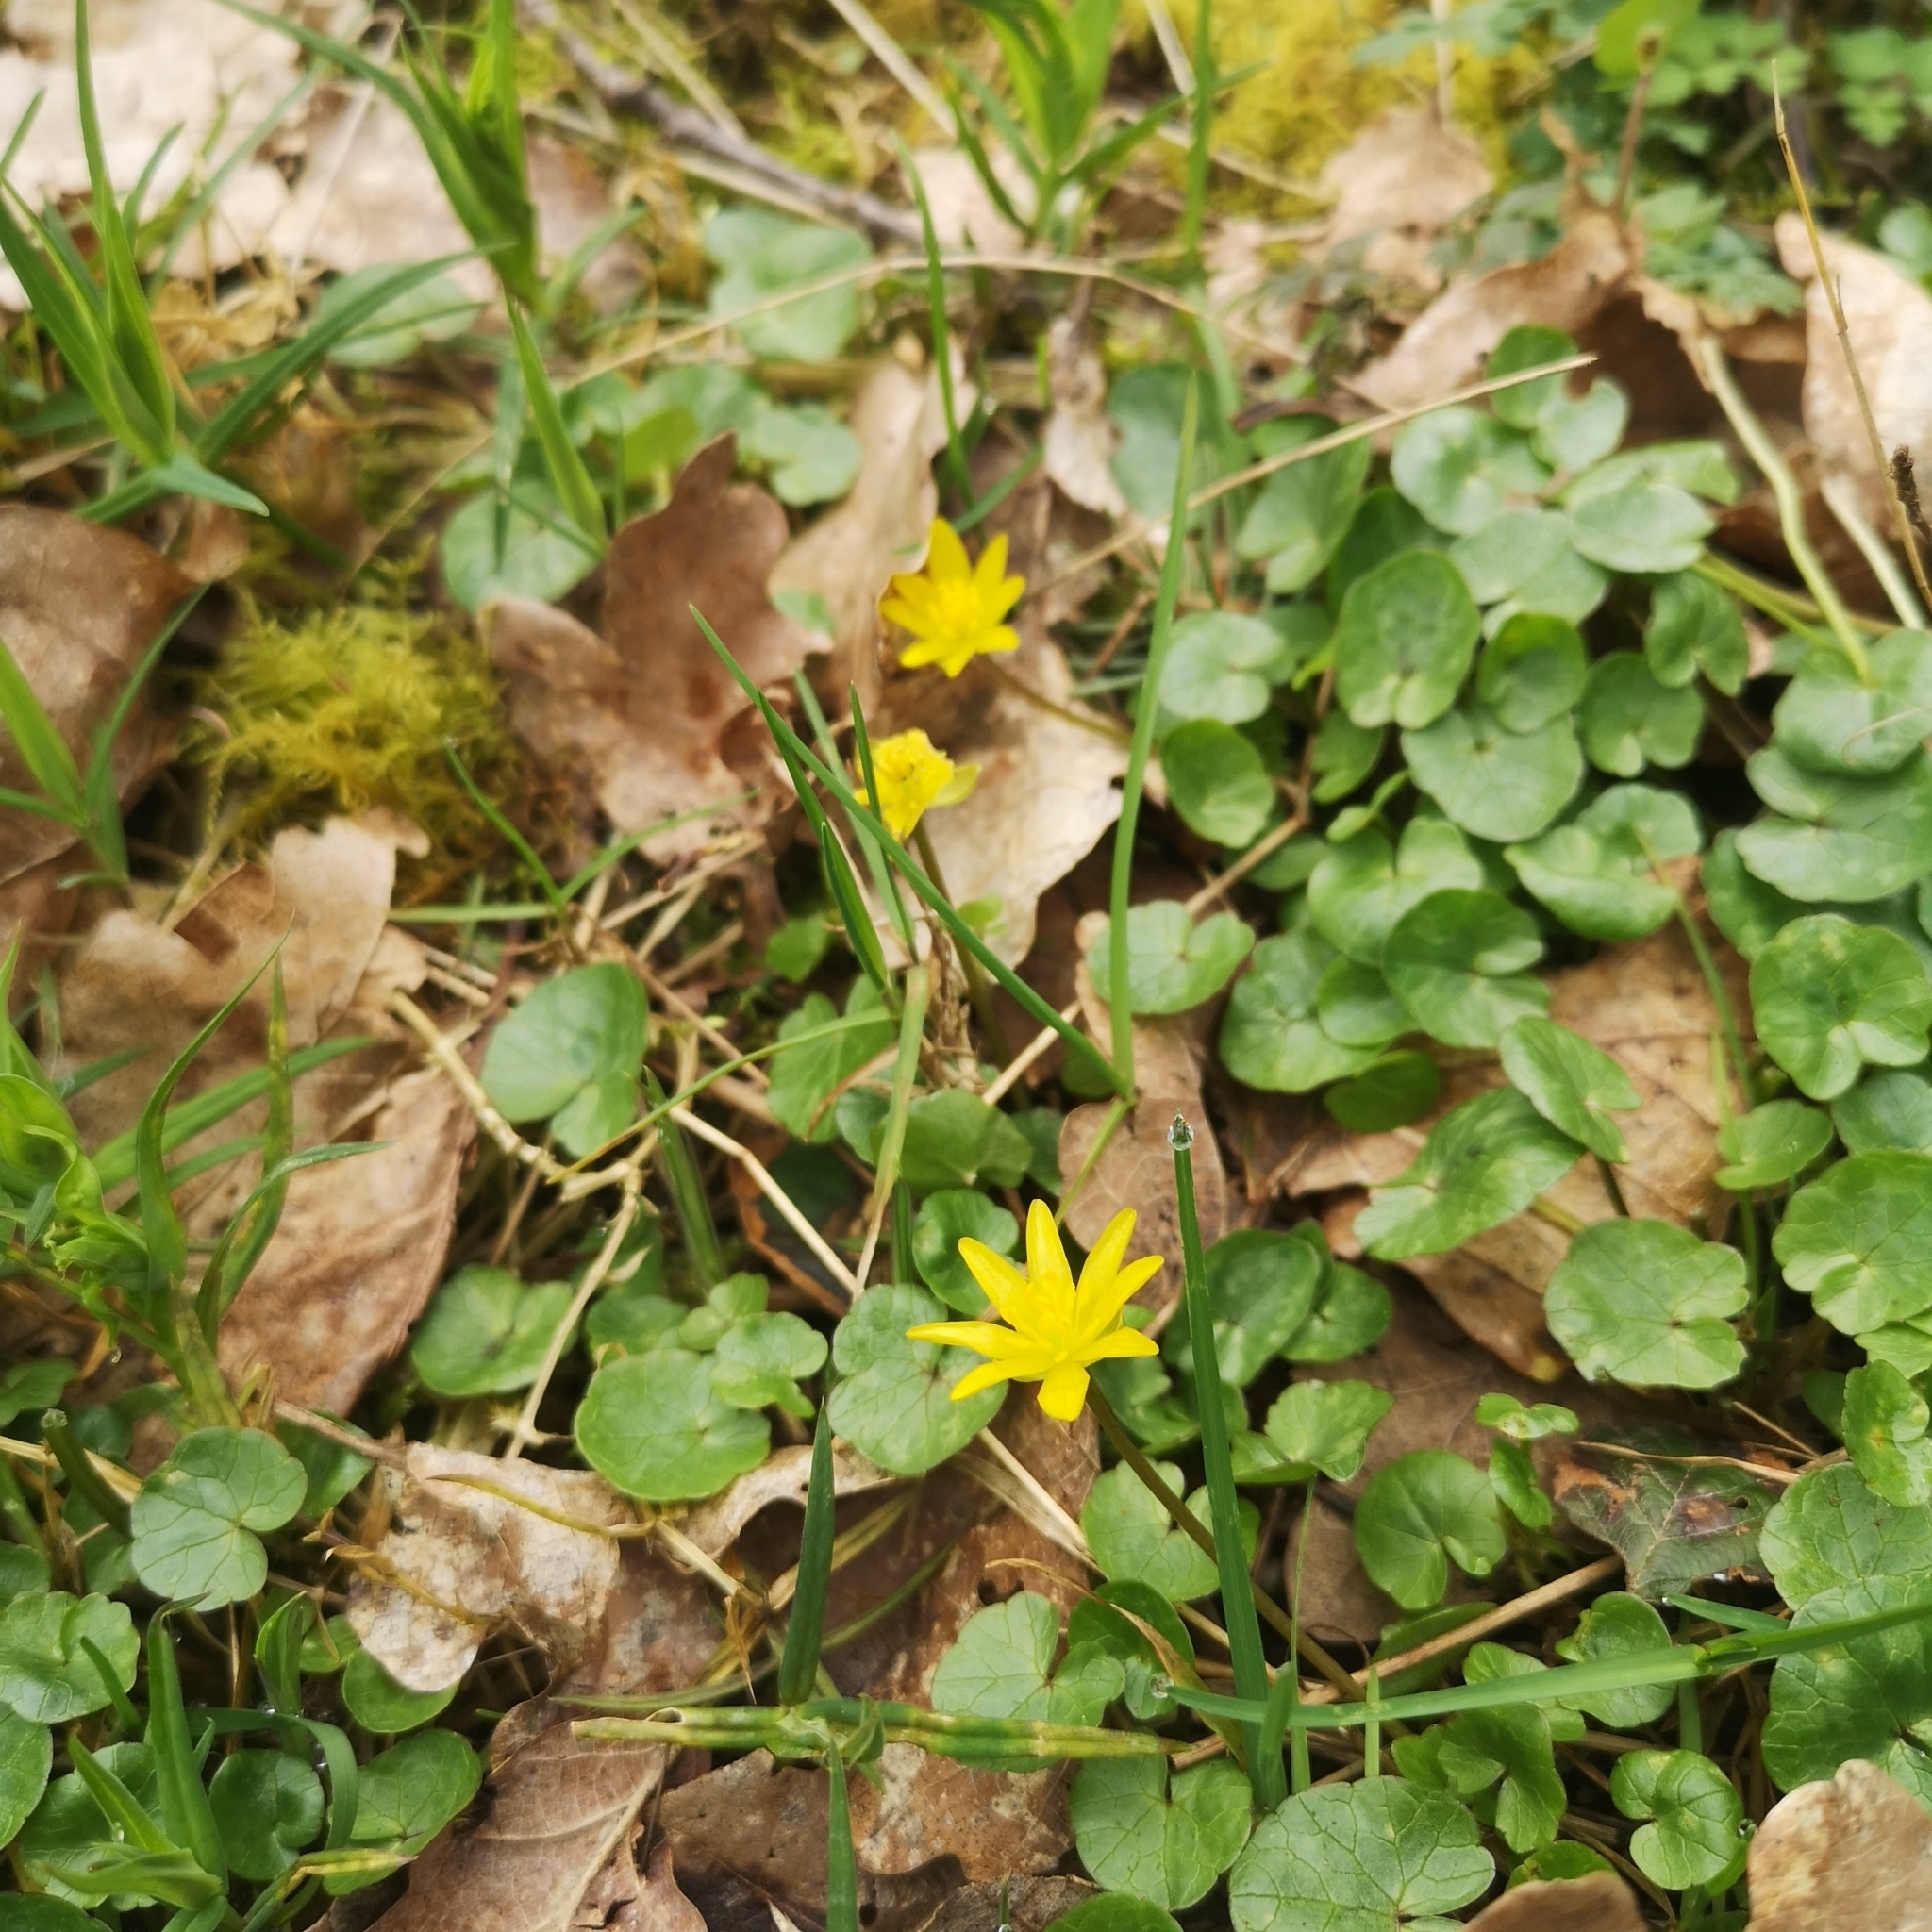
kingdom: Plantae
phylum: Tracheophyta
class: Magnoliopsida
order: Ranunculales
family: Ranunculaceae
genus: Ficaria
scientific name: Ficaria verna
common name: Lesser celandine
